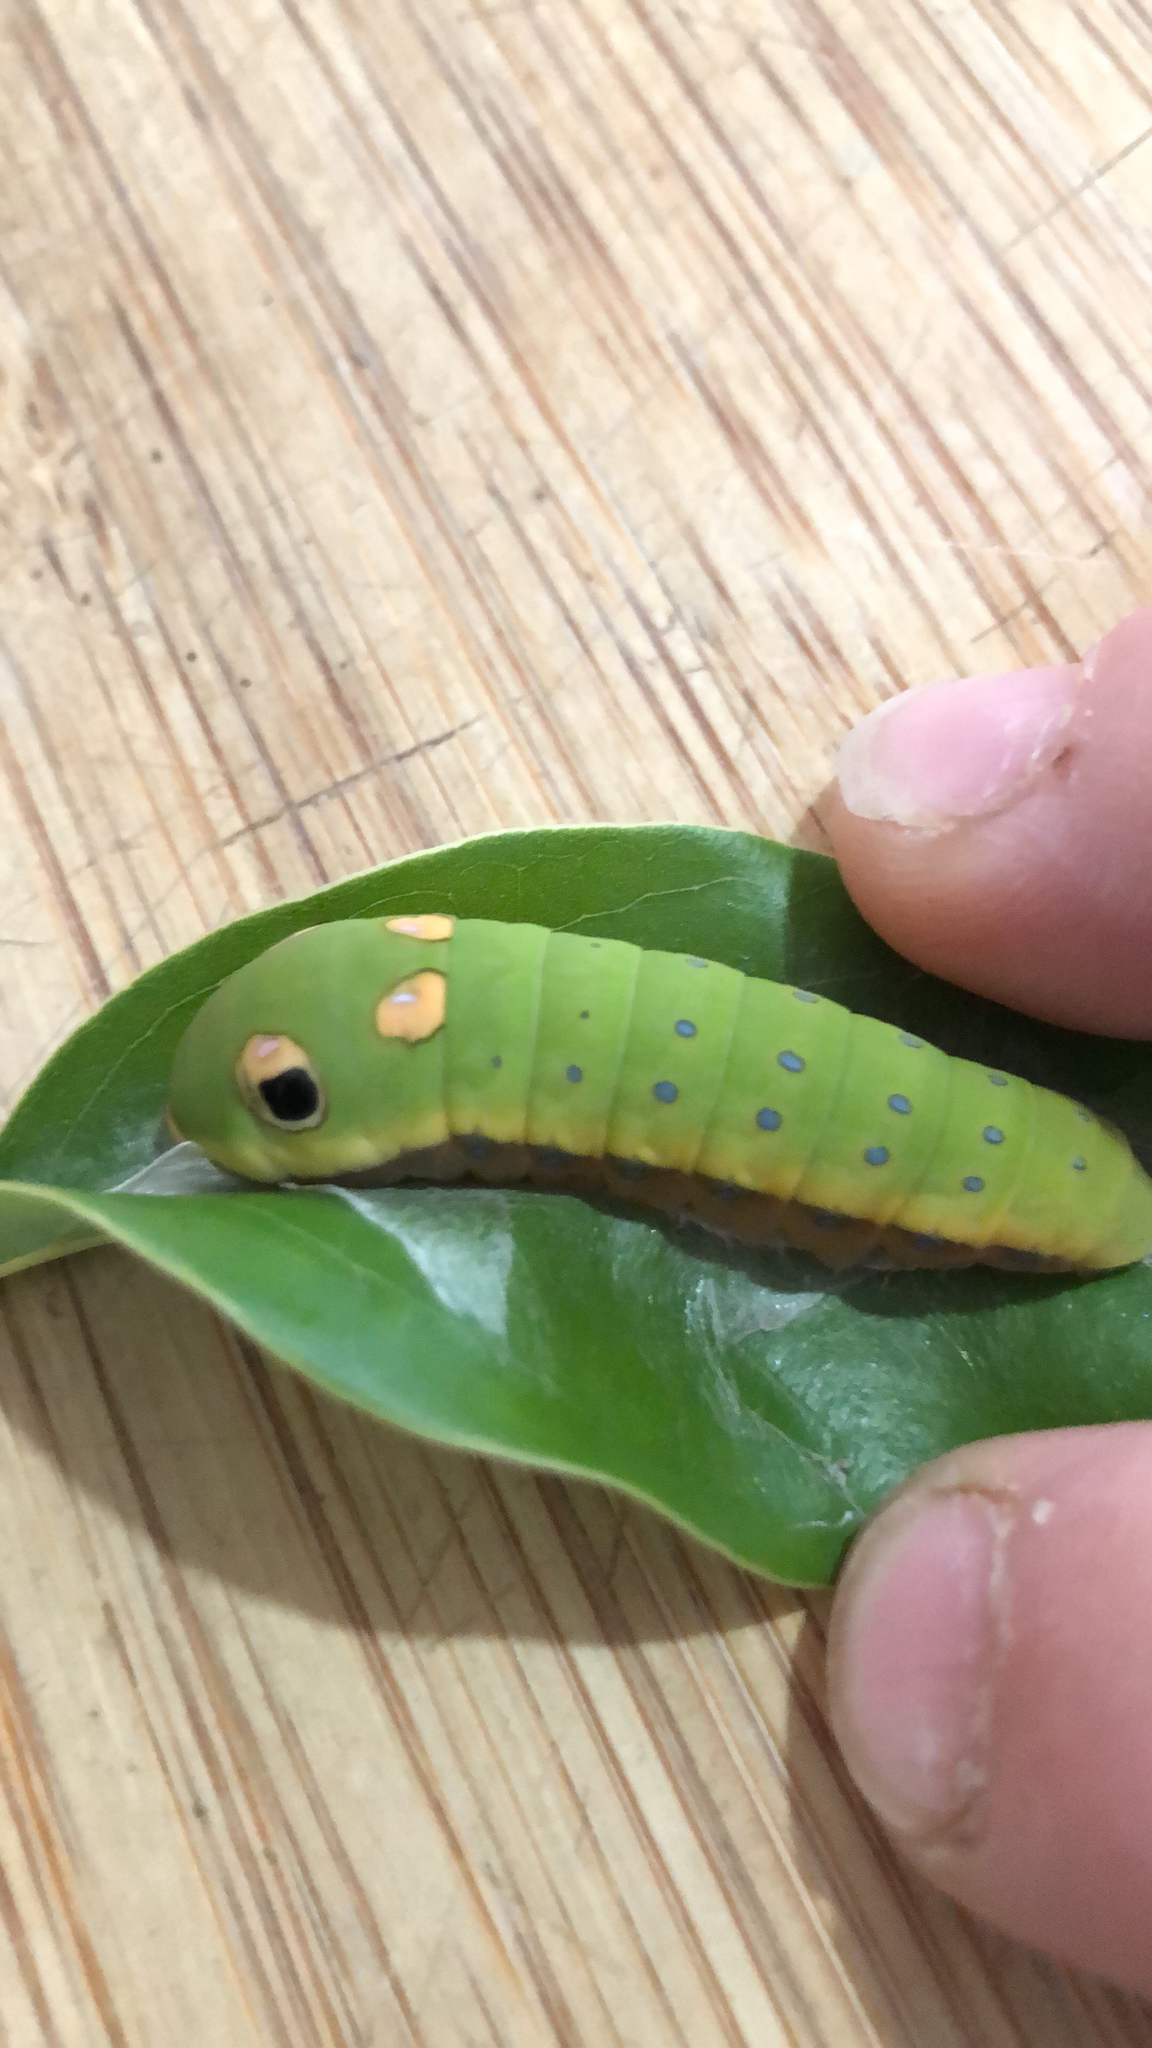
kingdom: Animalia
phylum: Arthropoda
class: Insecta
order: Lepidoptera
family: Papilionidae
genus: Papilio
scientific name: Papilio troilus
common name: Spicebush swallowtail
